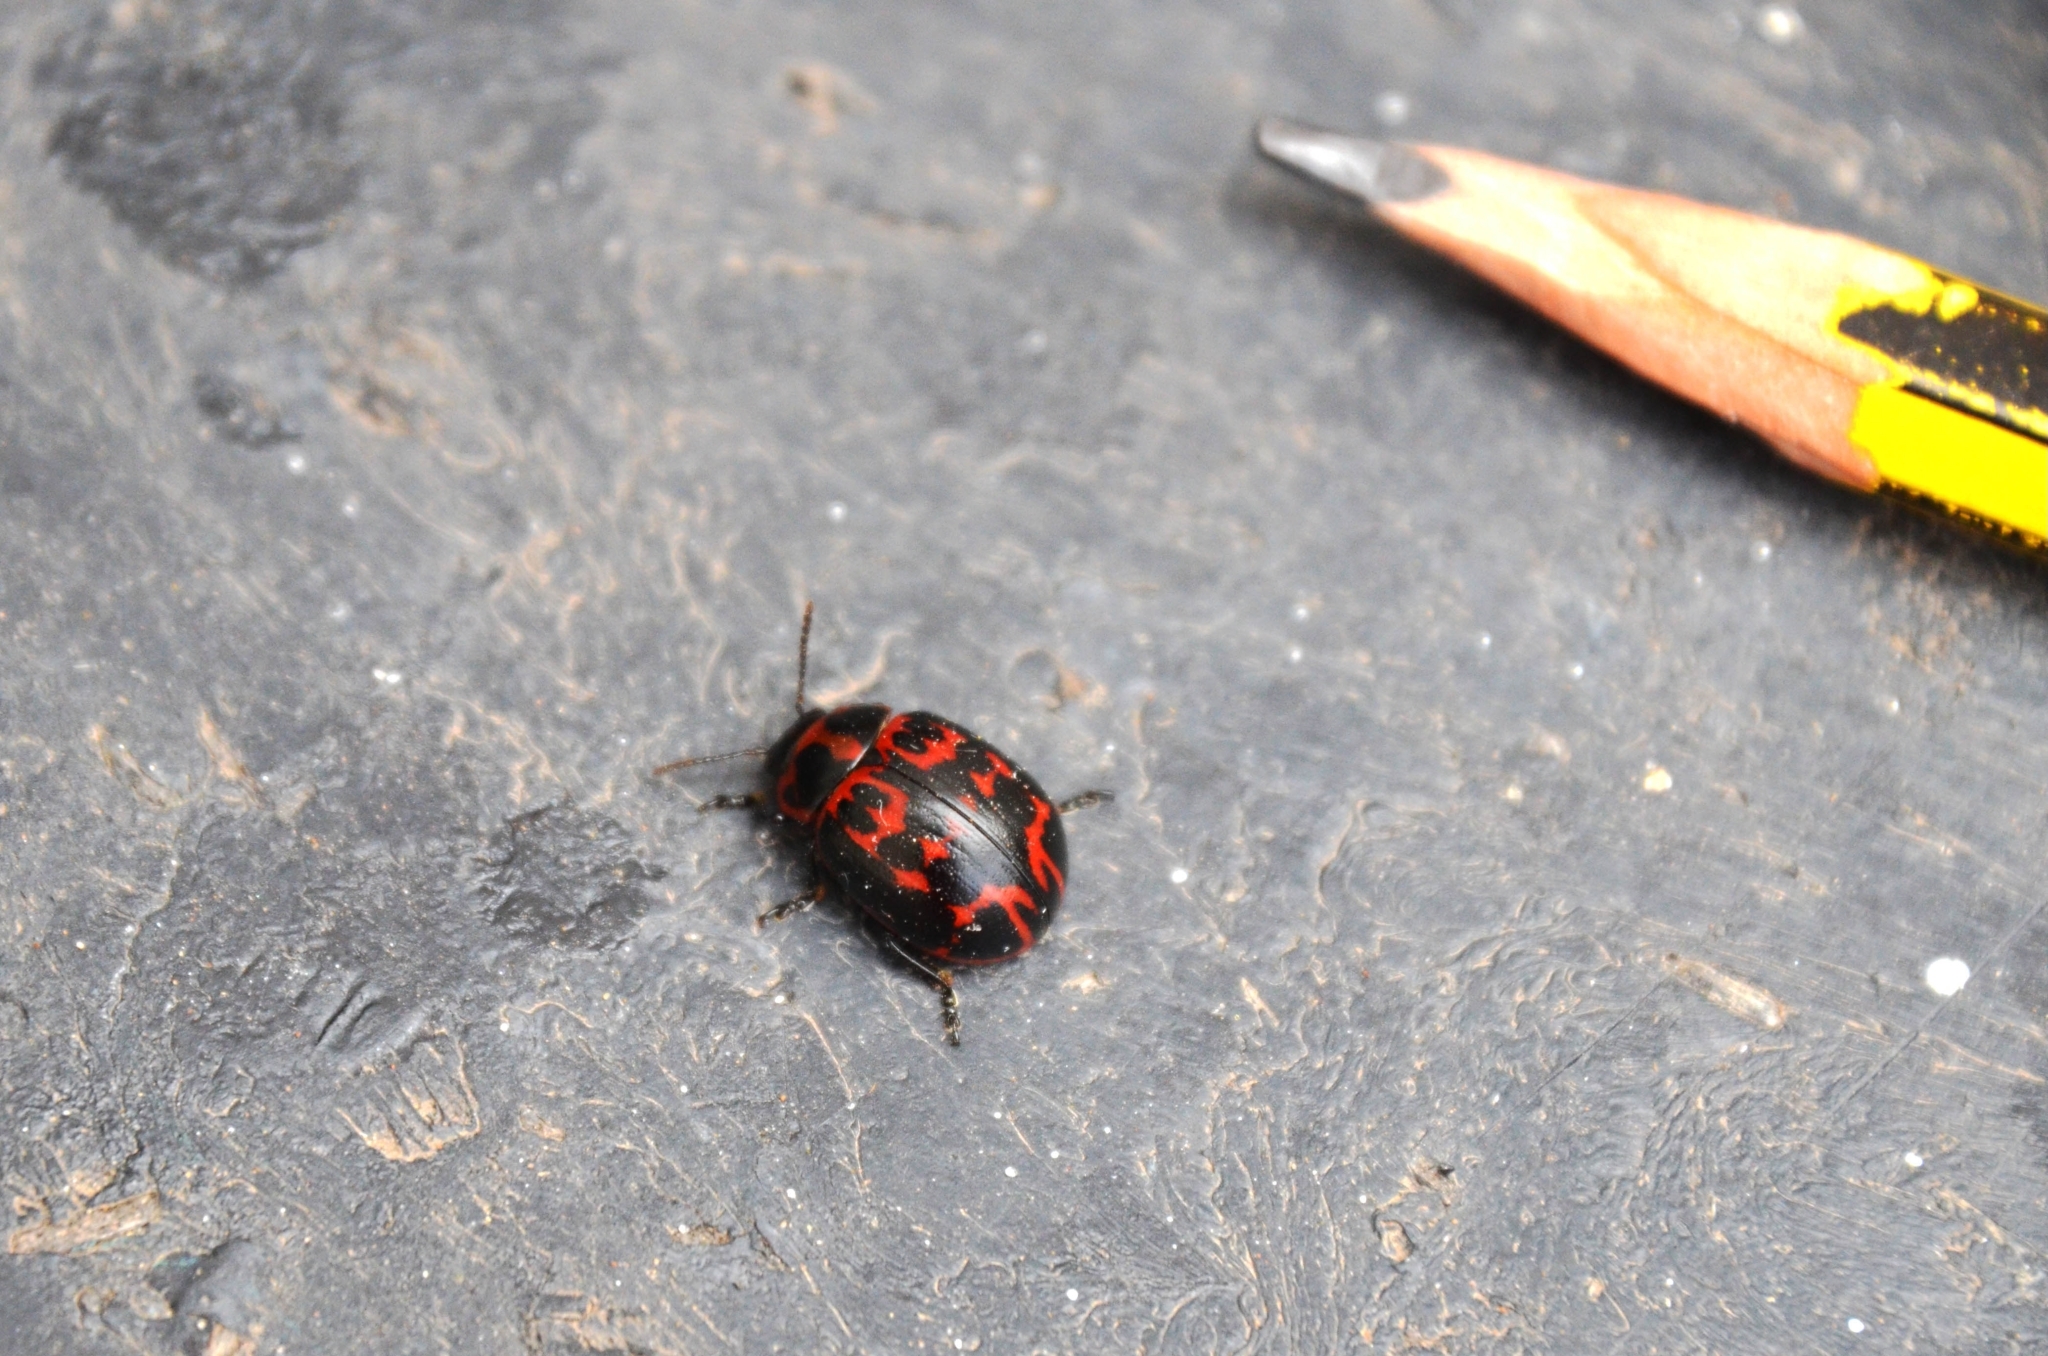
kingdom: Animalia
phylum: Arthropoda
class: Insecta
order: Coleoptera
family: Chrysomelidae
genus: Platyphora
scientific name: Platyphora
